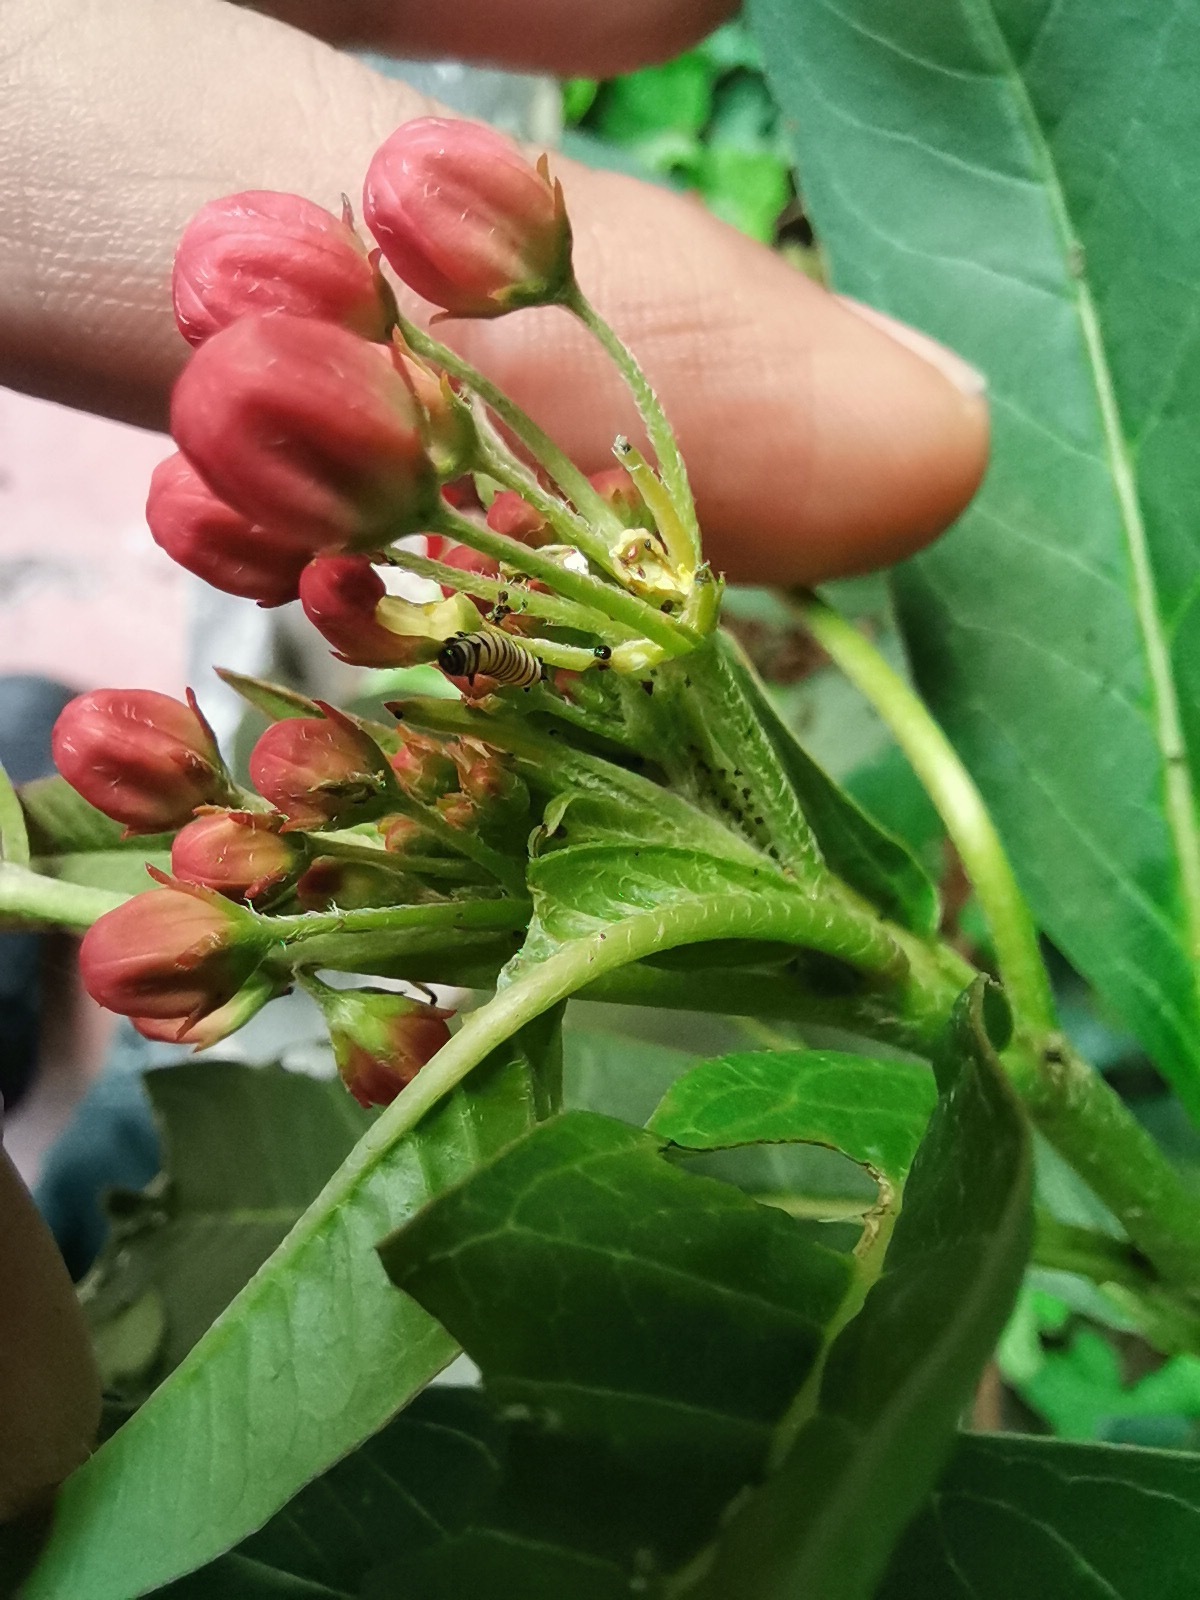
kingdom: Animalia
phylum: Arthropoda
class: Insecta
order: Lepidoptera
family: Nymphalidae
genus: Danaus
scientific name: Danaus plexippus
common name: Monarch
